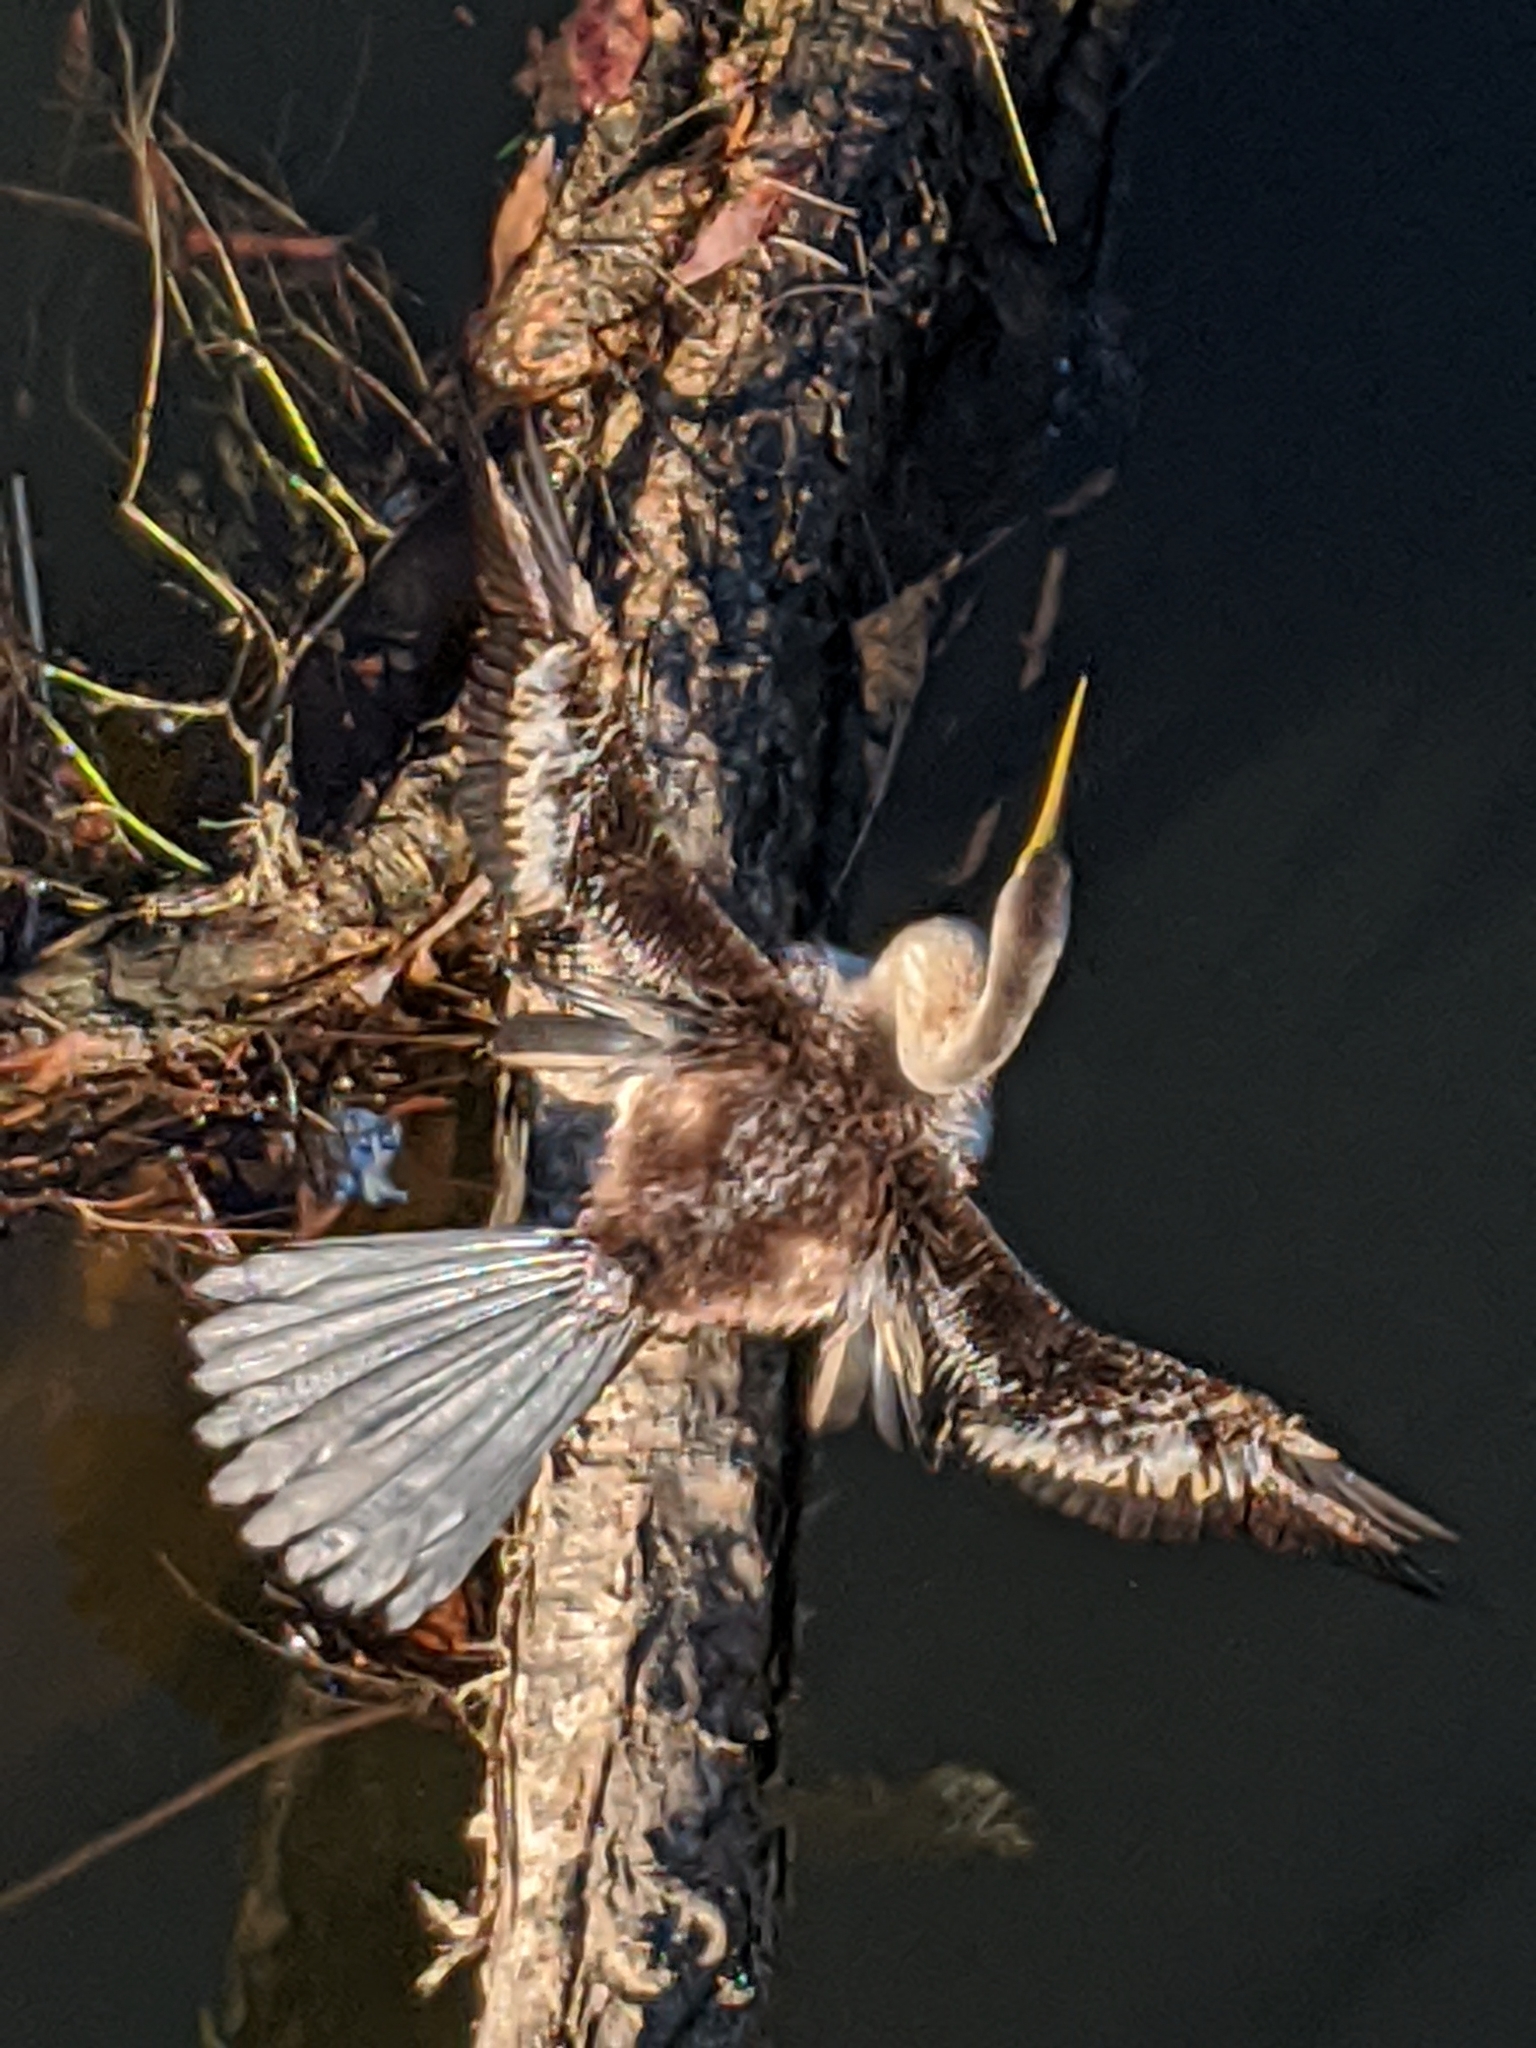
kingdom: Animalia
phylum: Chordata
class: Aves
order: Suliformes
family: Anhingidae
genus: Anhinga
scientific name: Anhinga novaehollandiae
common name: Australasian darter
